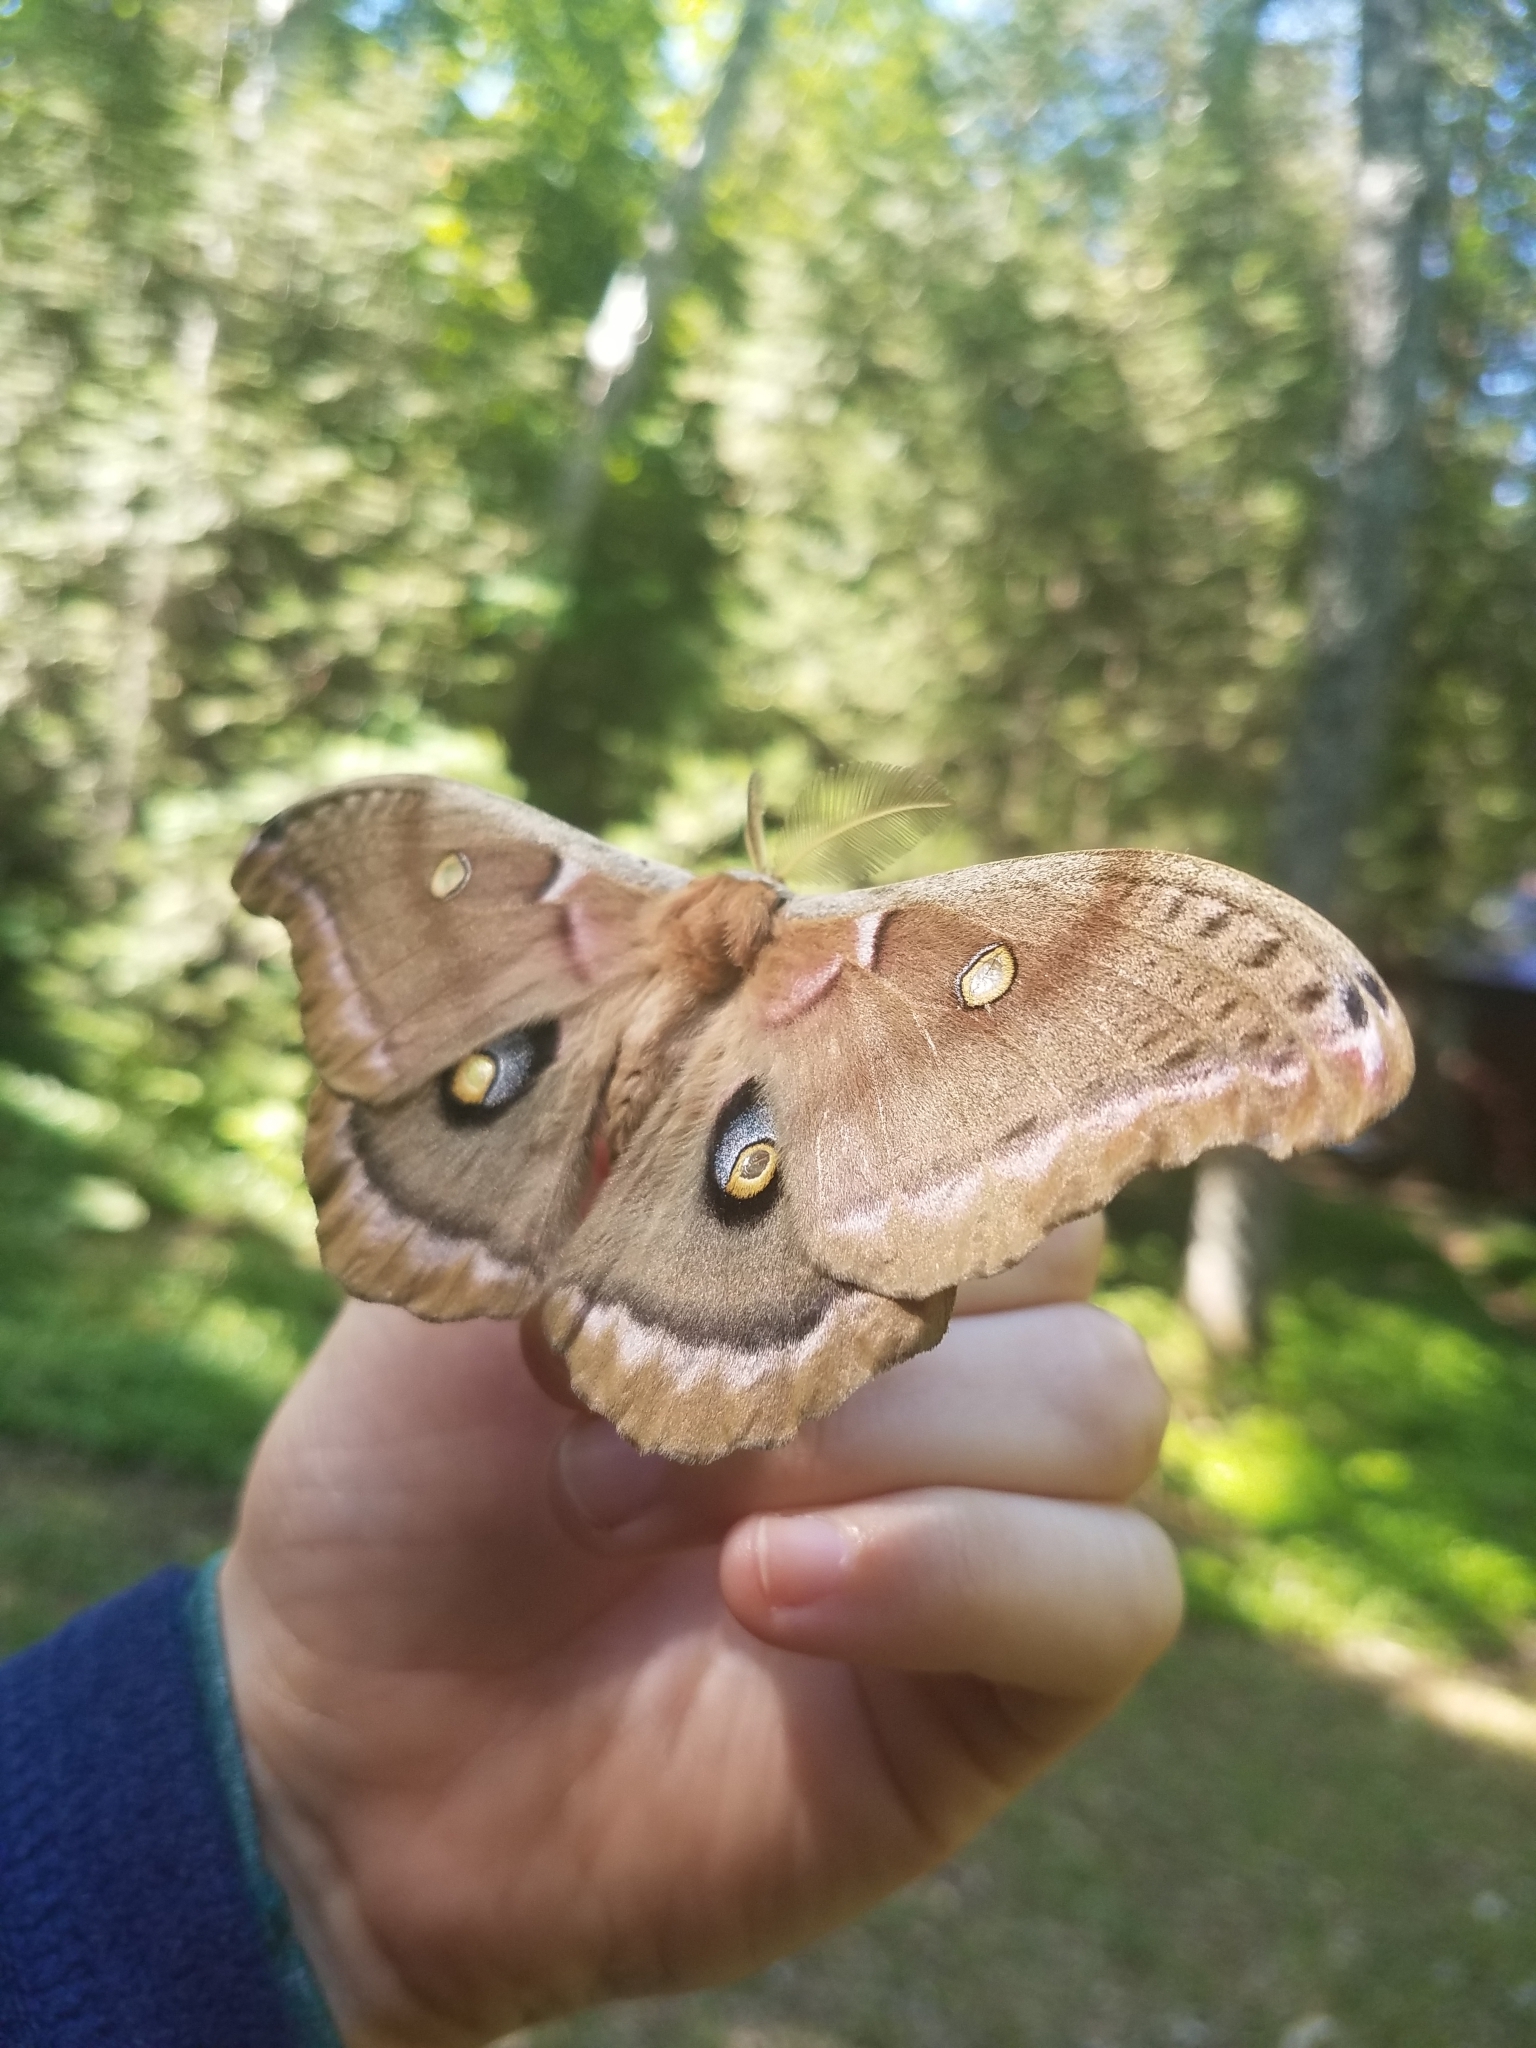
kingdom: Animalia
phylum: Arthropoda
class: Insecta
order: Lepidoptera
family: Saturniidae
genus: Antheraea
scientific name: Antheraea polyphemus
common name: Polyphemus moth
